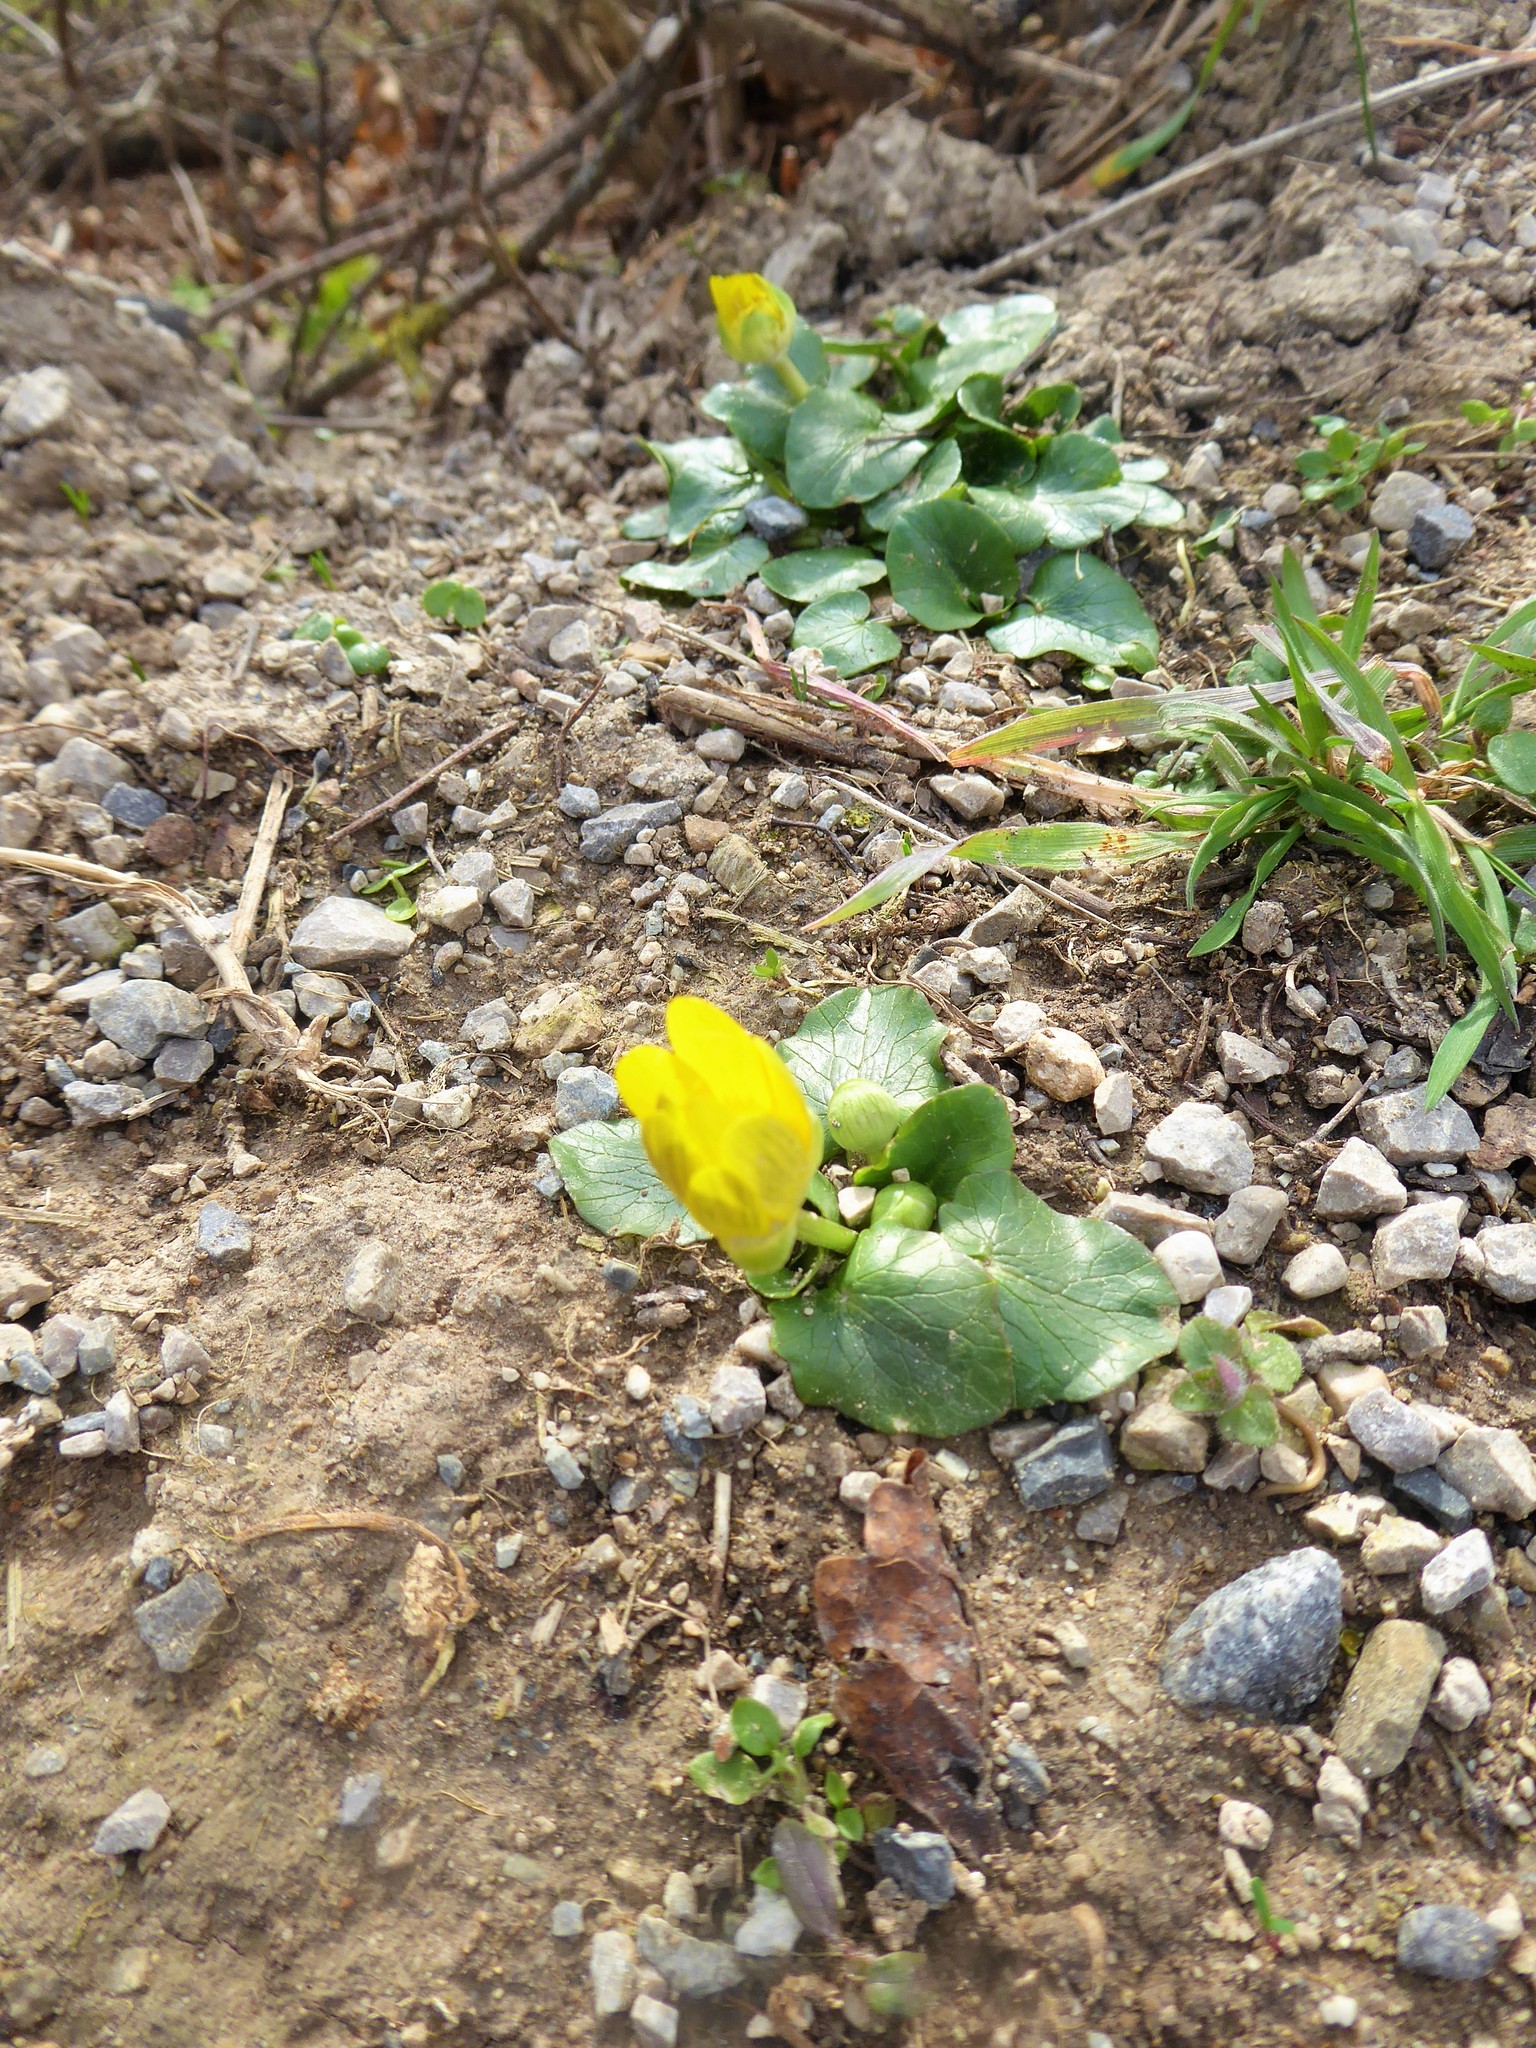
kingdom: Plantae
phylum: Tracheophyta
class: Magnoliopsida
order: Ranunculales
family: Ranunculaceae
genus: Ficaria
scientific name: Ficaria verna
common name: Lesser celandine
